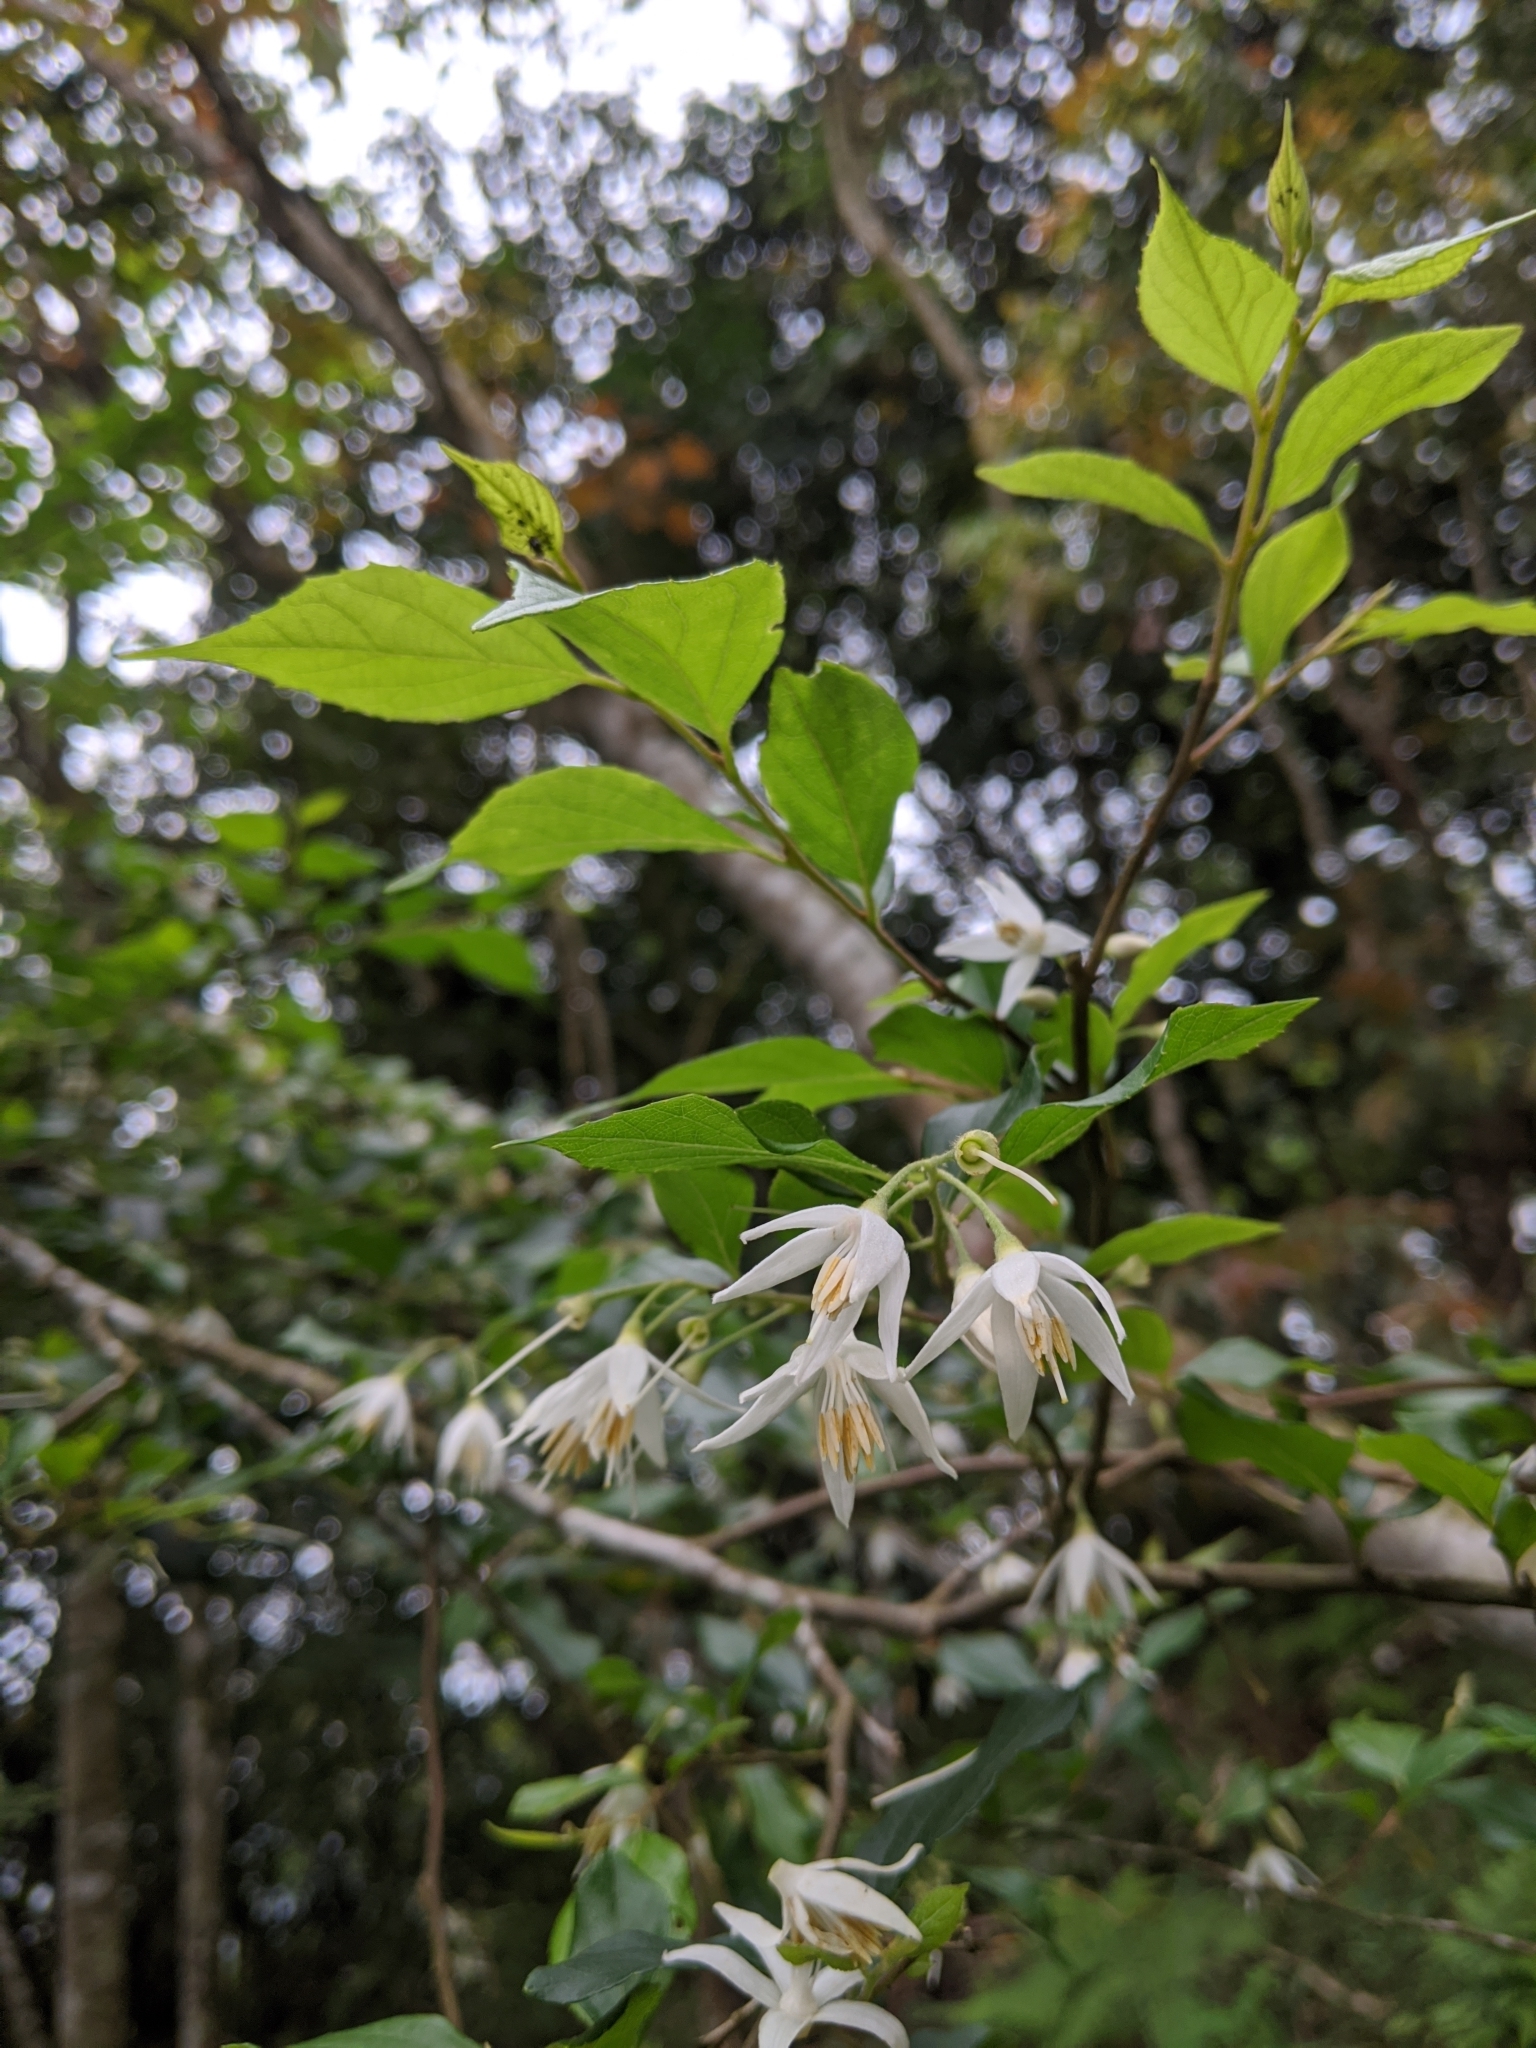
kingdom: Plantae
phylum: Tracheophyta
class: Magnoliopsida
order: Ericales
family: Styracaceae
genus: Styrax
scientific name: Styrax formosanus
